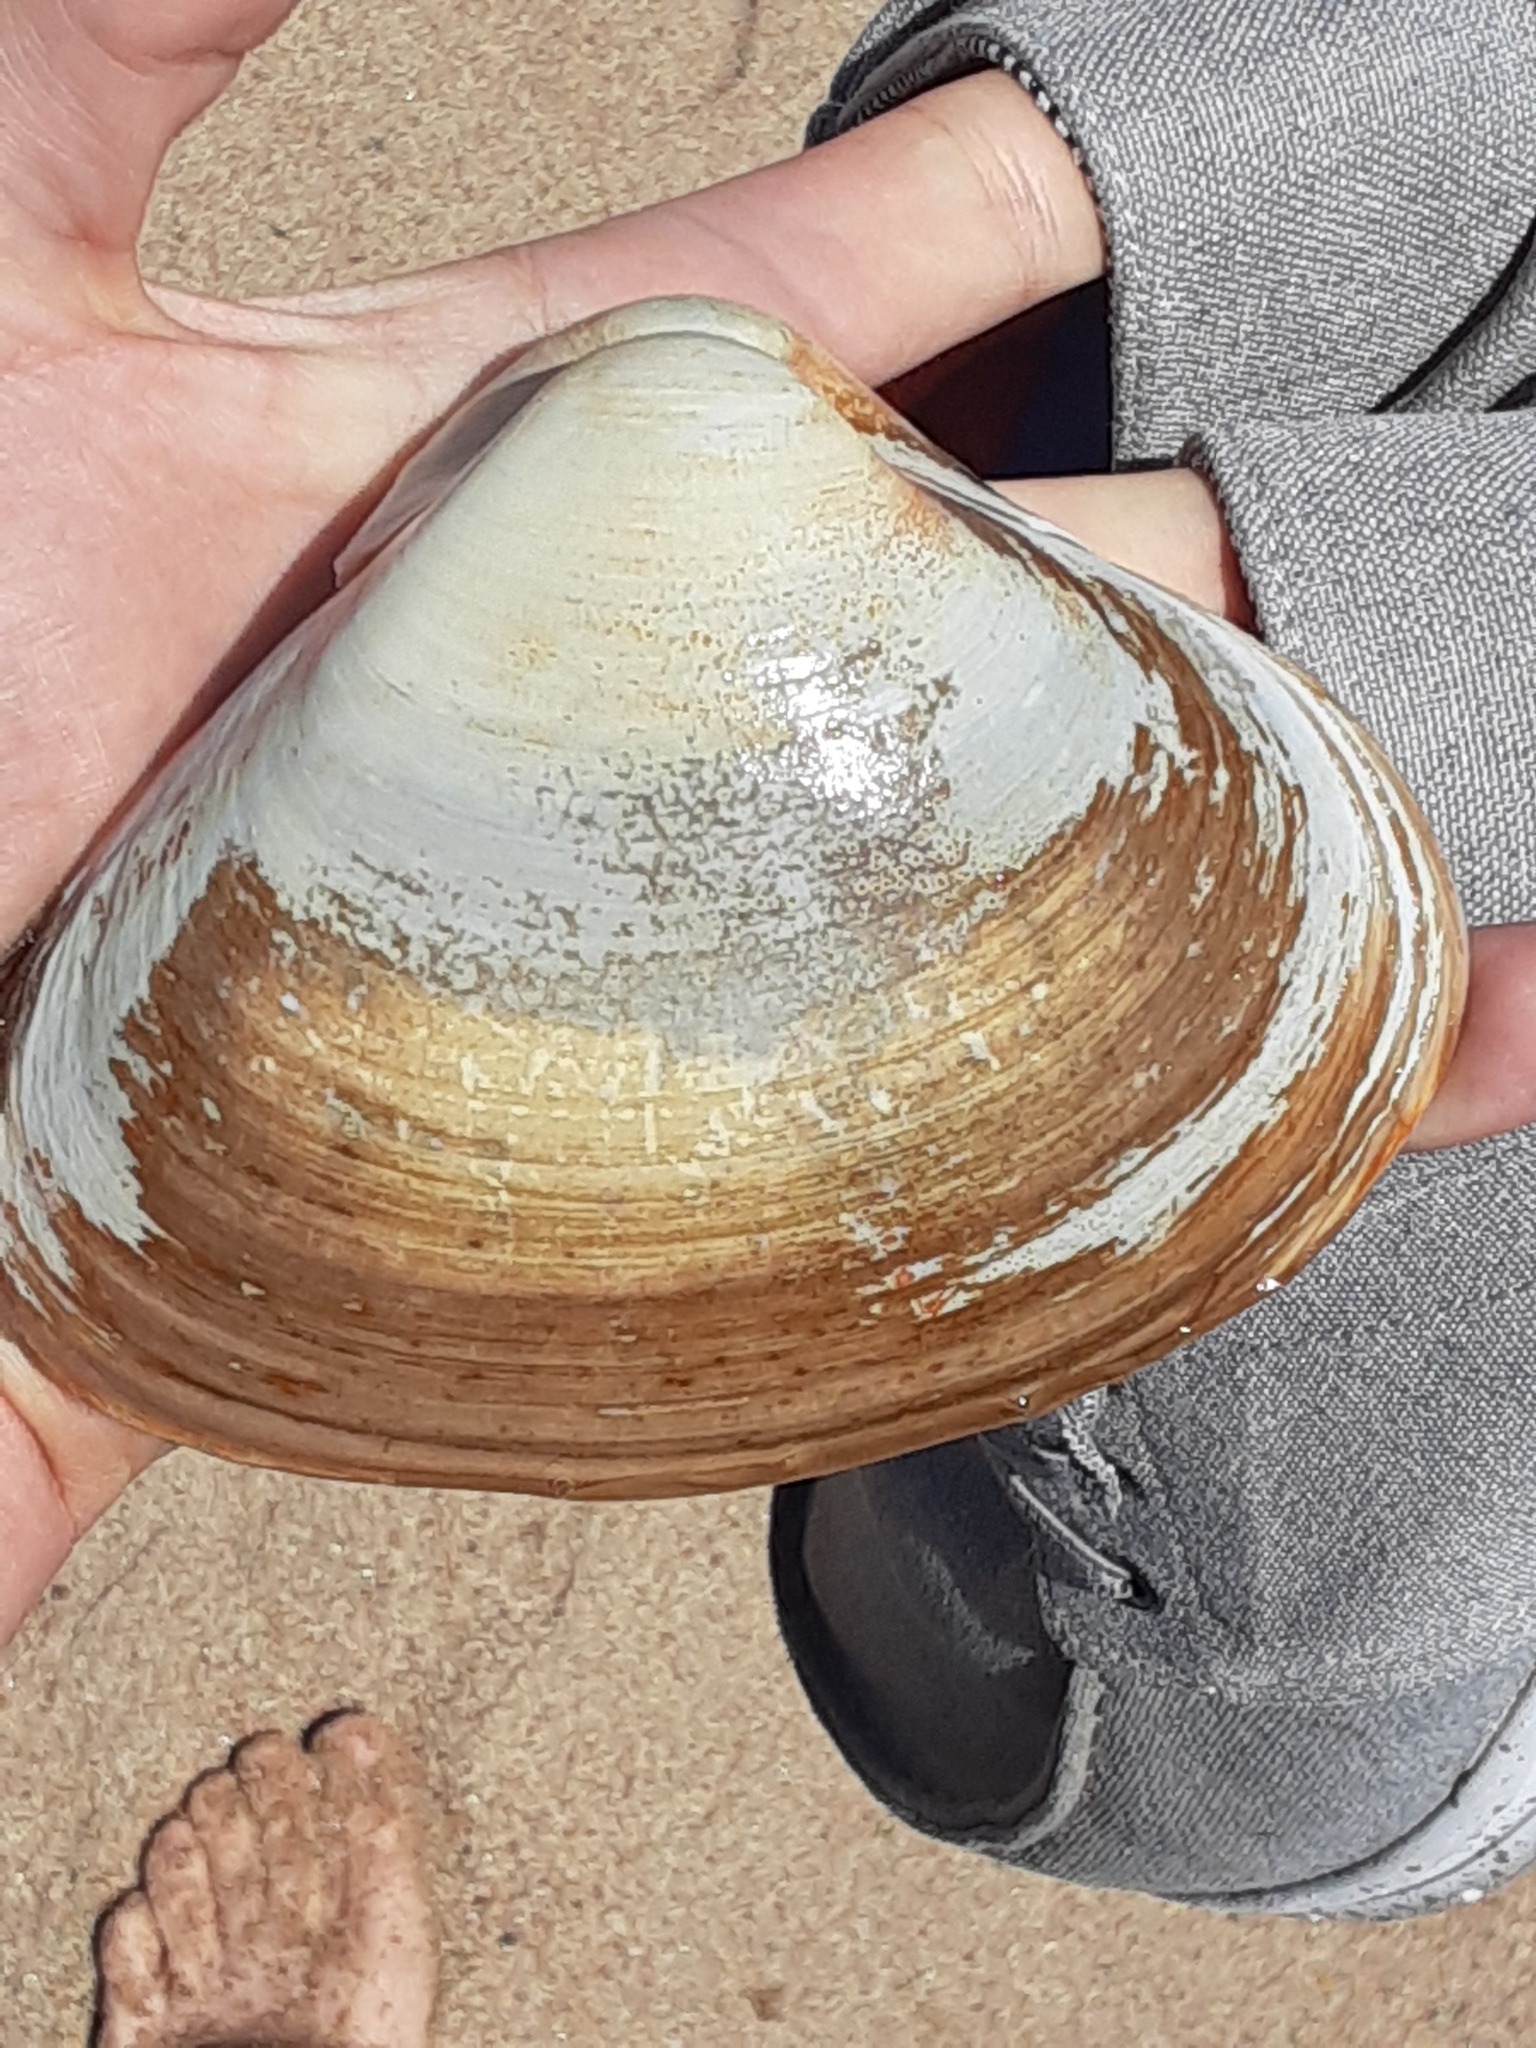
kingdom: Animalia
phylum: Mollusca
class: Bivalvia
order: Venerida
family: Mactridae
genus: Spisula
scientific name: Spisula solidissima
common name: Atlantic surf clam
